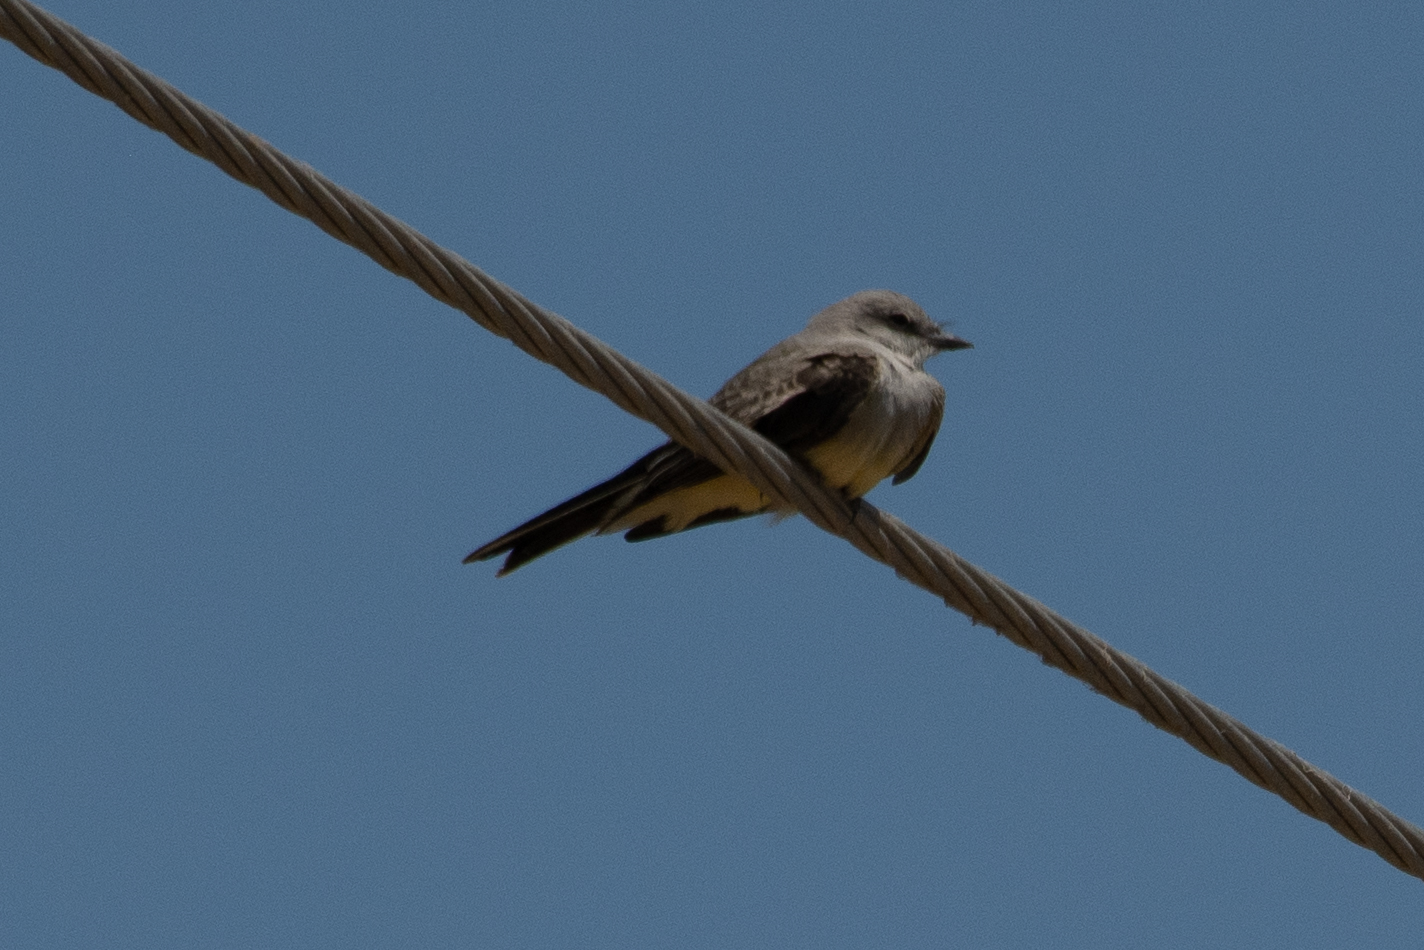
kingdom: Animalia
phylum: Chordata
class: Aves
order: Passeriformes
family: Tyrannidae
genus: Tyrannus
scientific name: Tyrannus verticalis
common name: Western kingbird
